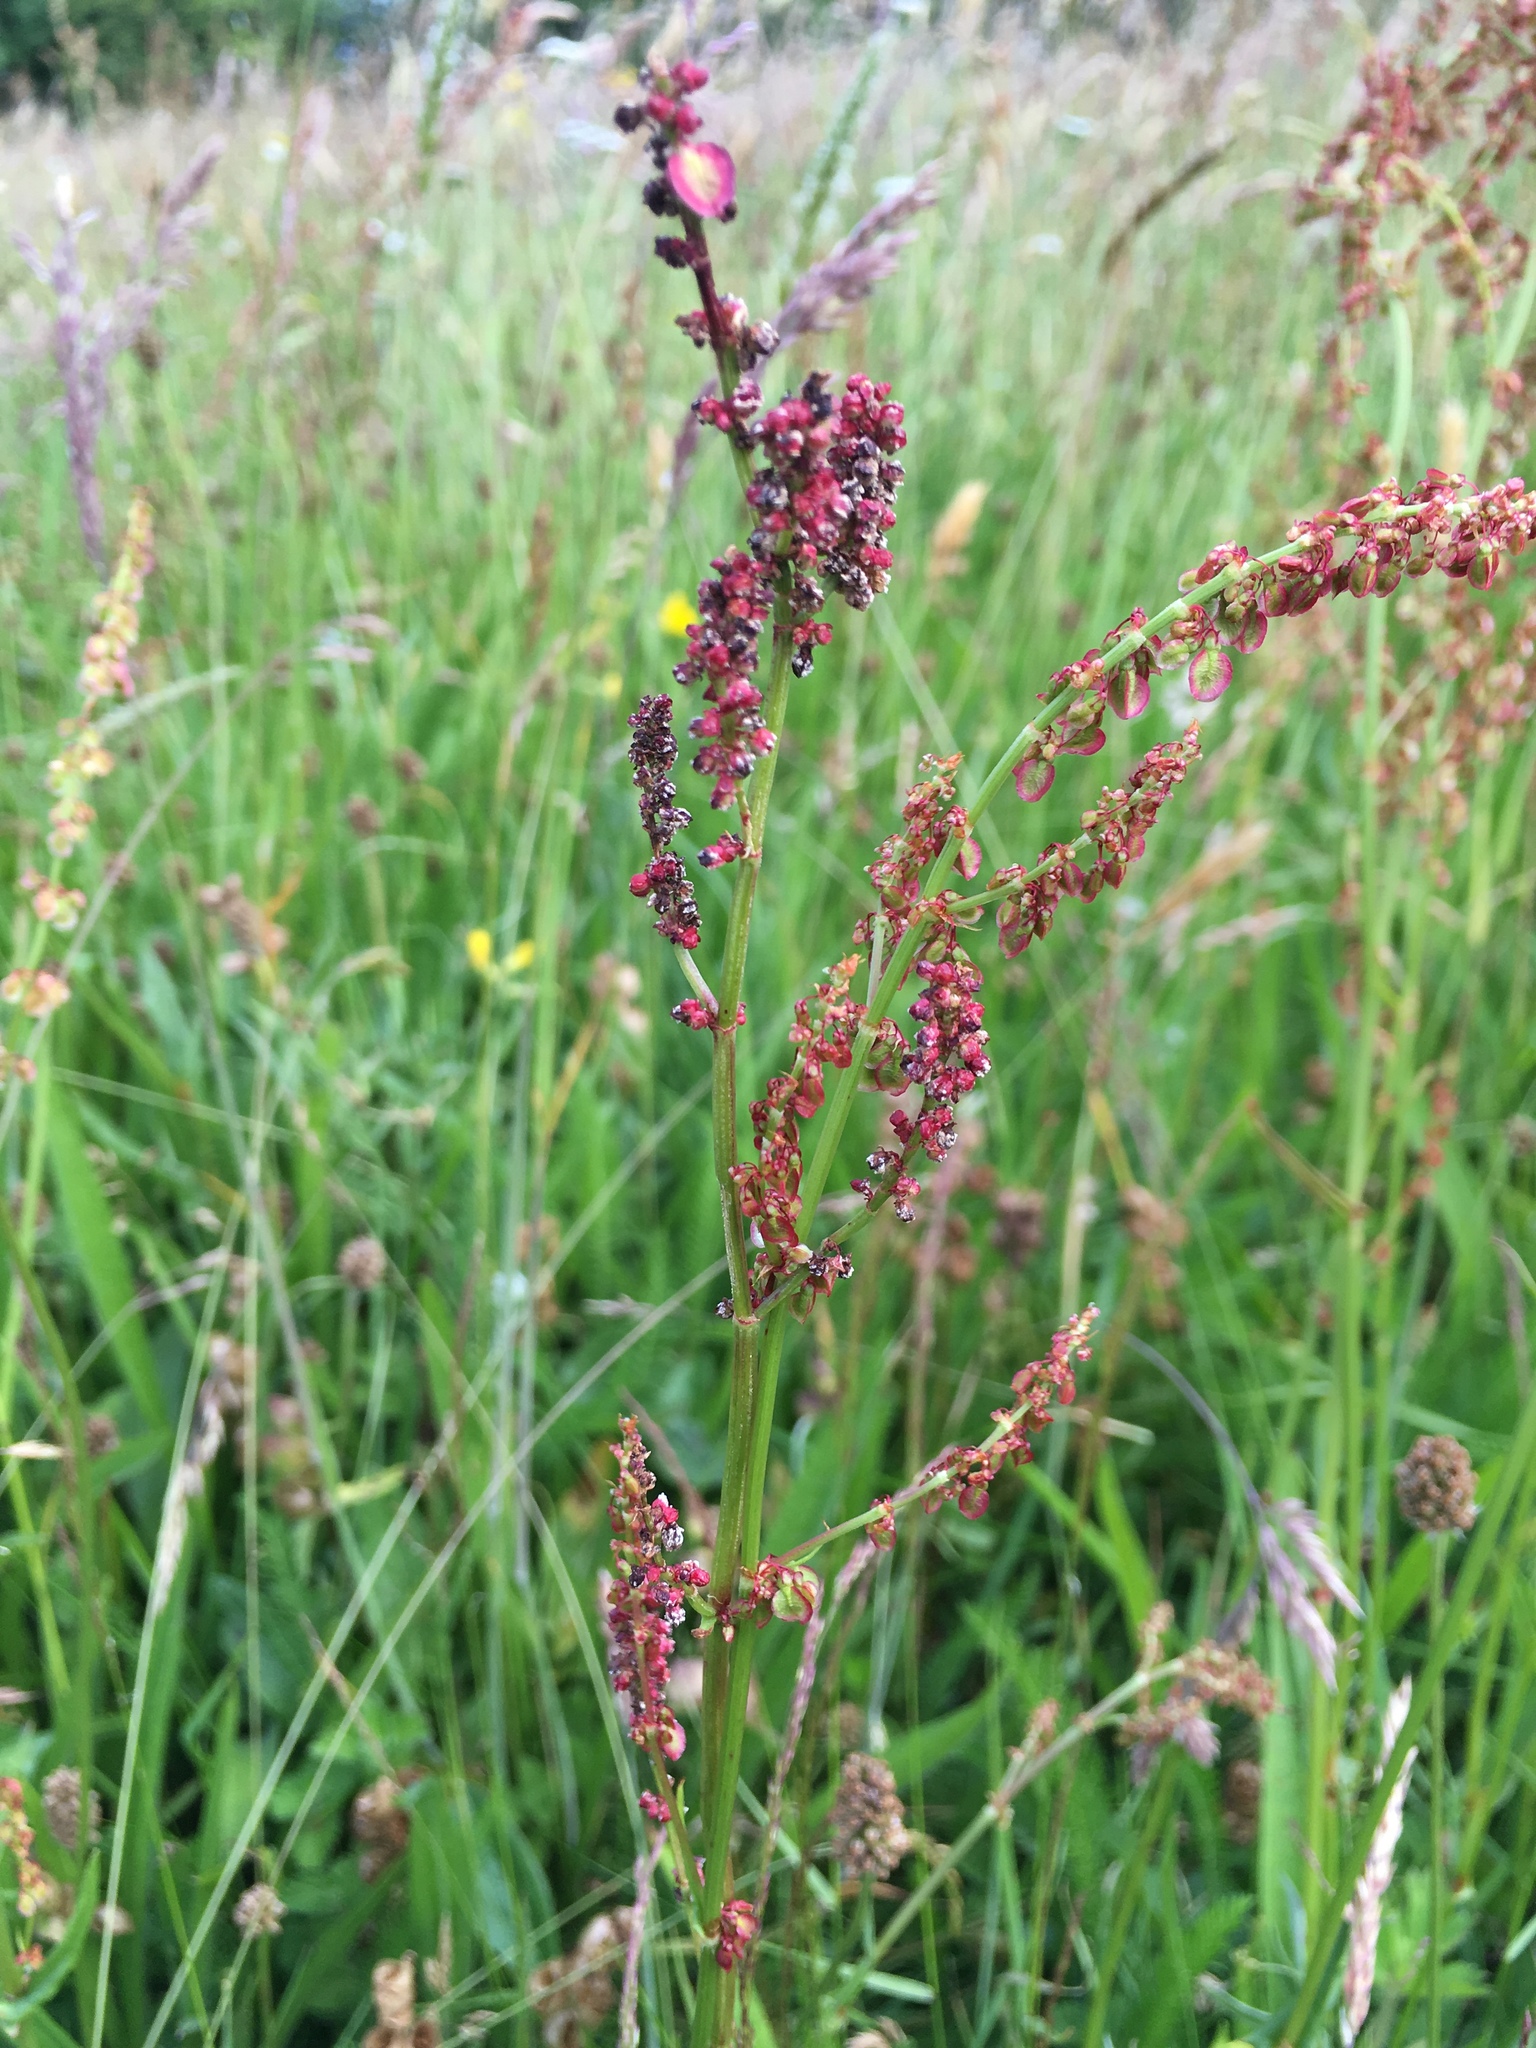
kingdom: Plantae
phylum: Tracheophyta
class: Magnoliopsida
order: Caryophyllales
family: Polygonaceae
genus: Rumex
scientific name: Rumex acetosa
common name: Garden sorrel
